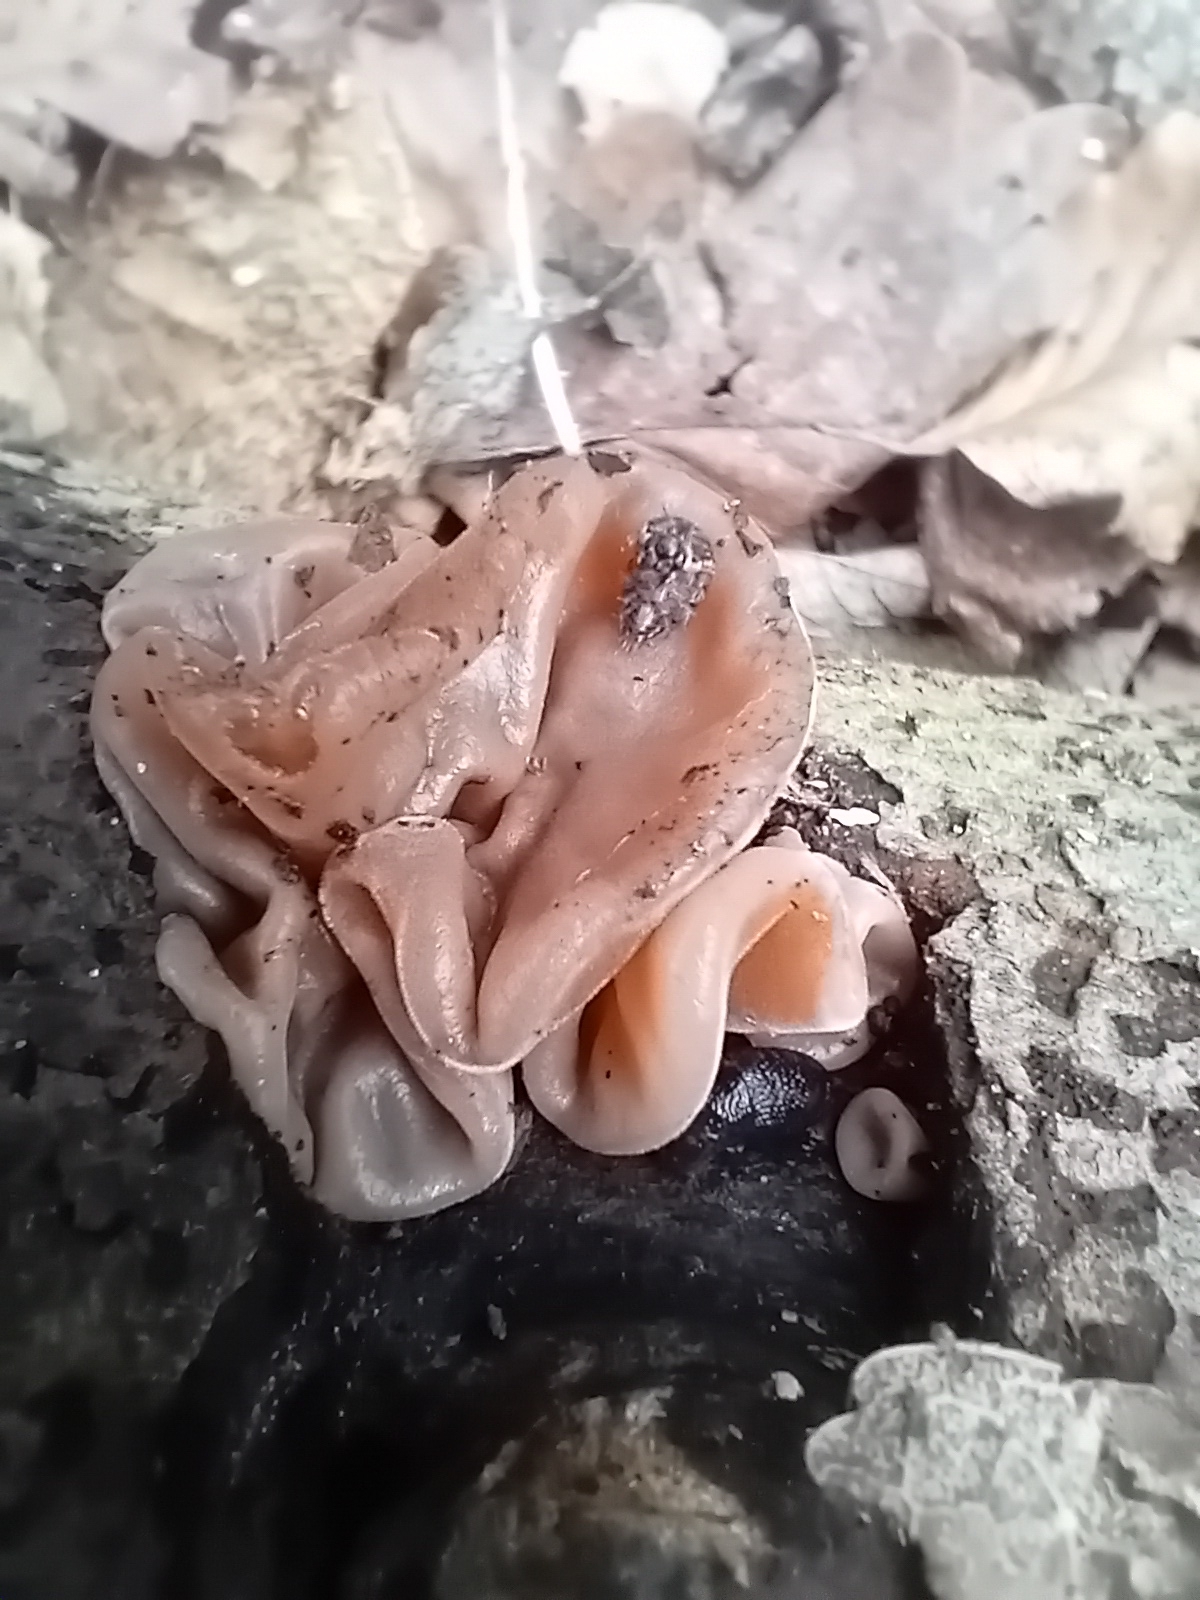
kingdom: Fungi
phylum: Basidiomycota
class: Agaricomycetes
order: Auriculariales
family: Auriculariaceae
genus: Auricularia
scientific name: Auricularia auricula-judae
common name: Jelly ear
